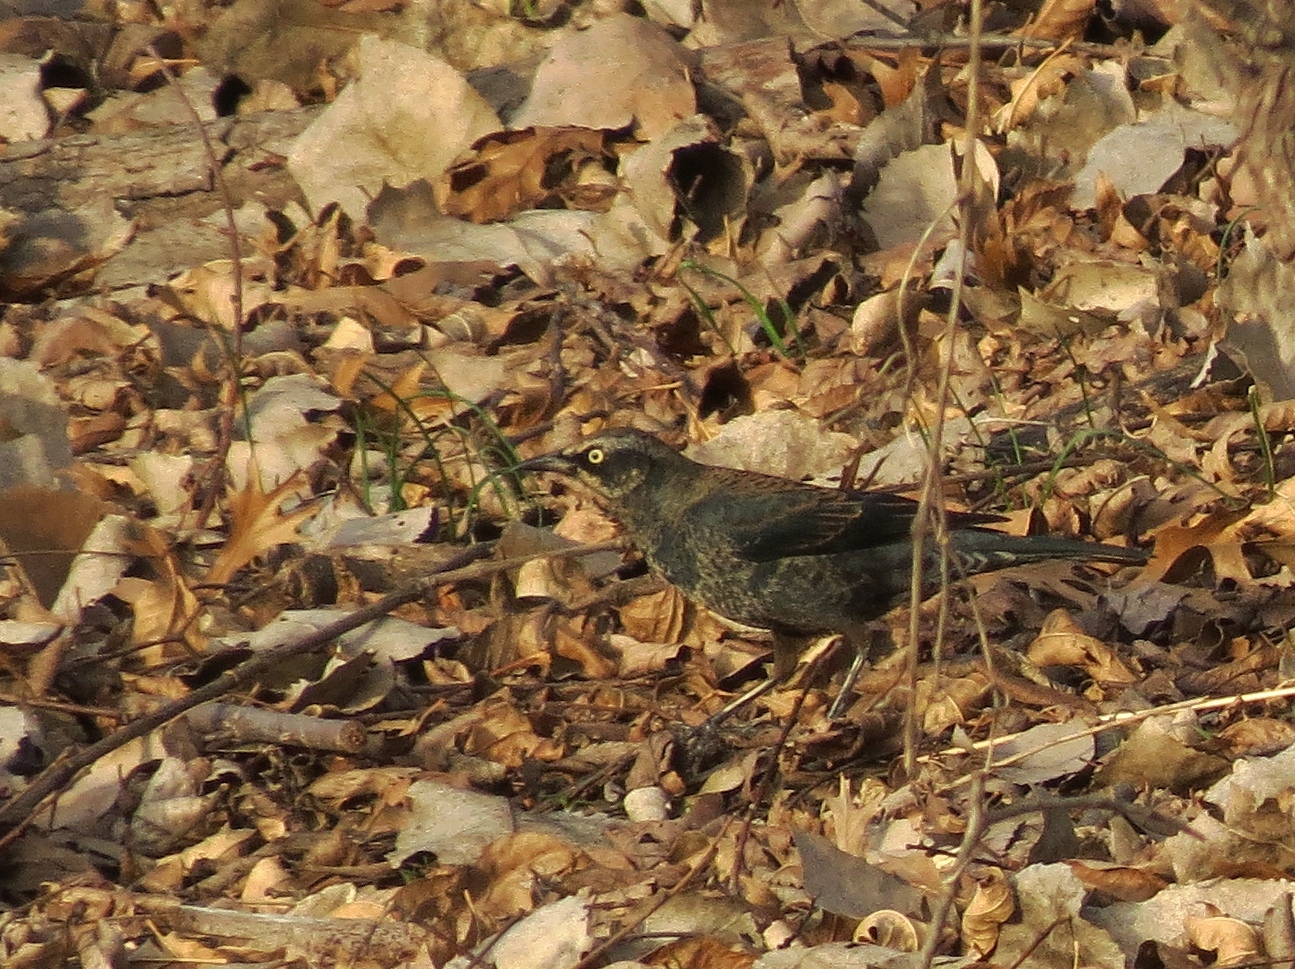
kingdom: Animalia
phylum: Chordata
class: Aves
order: Passeriformes
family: Icteridae
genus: Euphagus
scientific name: Euphagus carolinus
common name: Rusty blackbird
